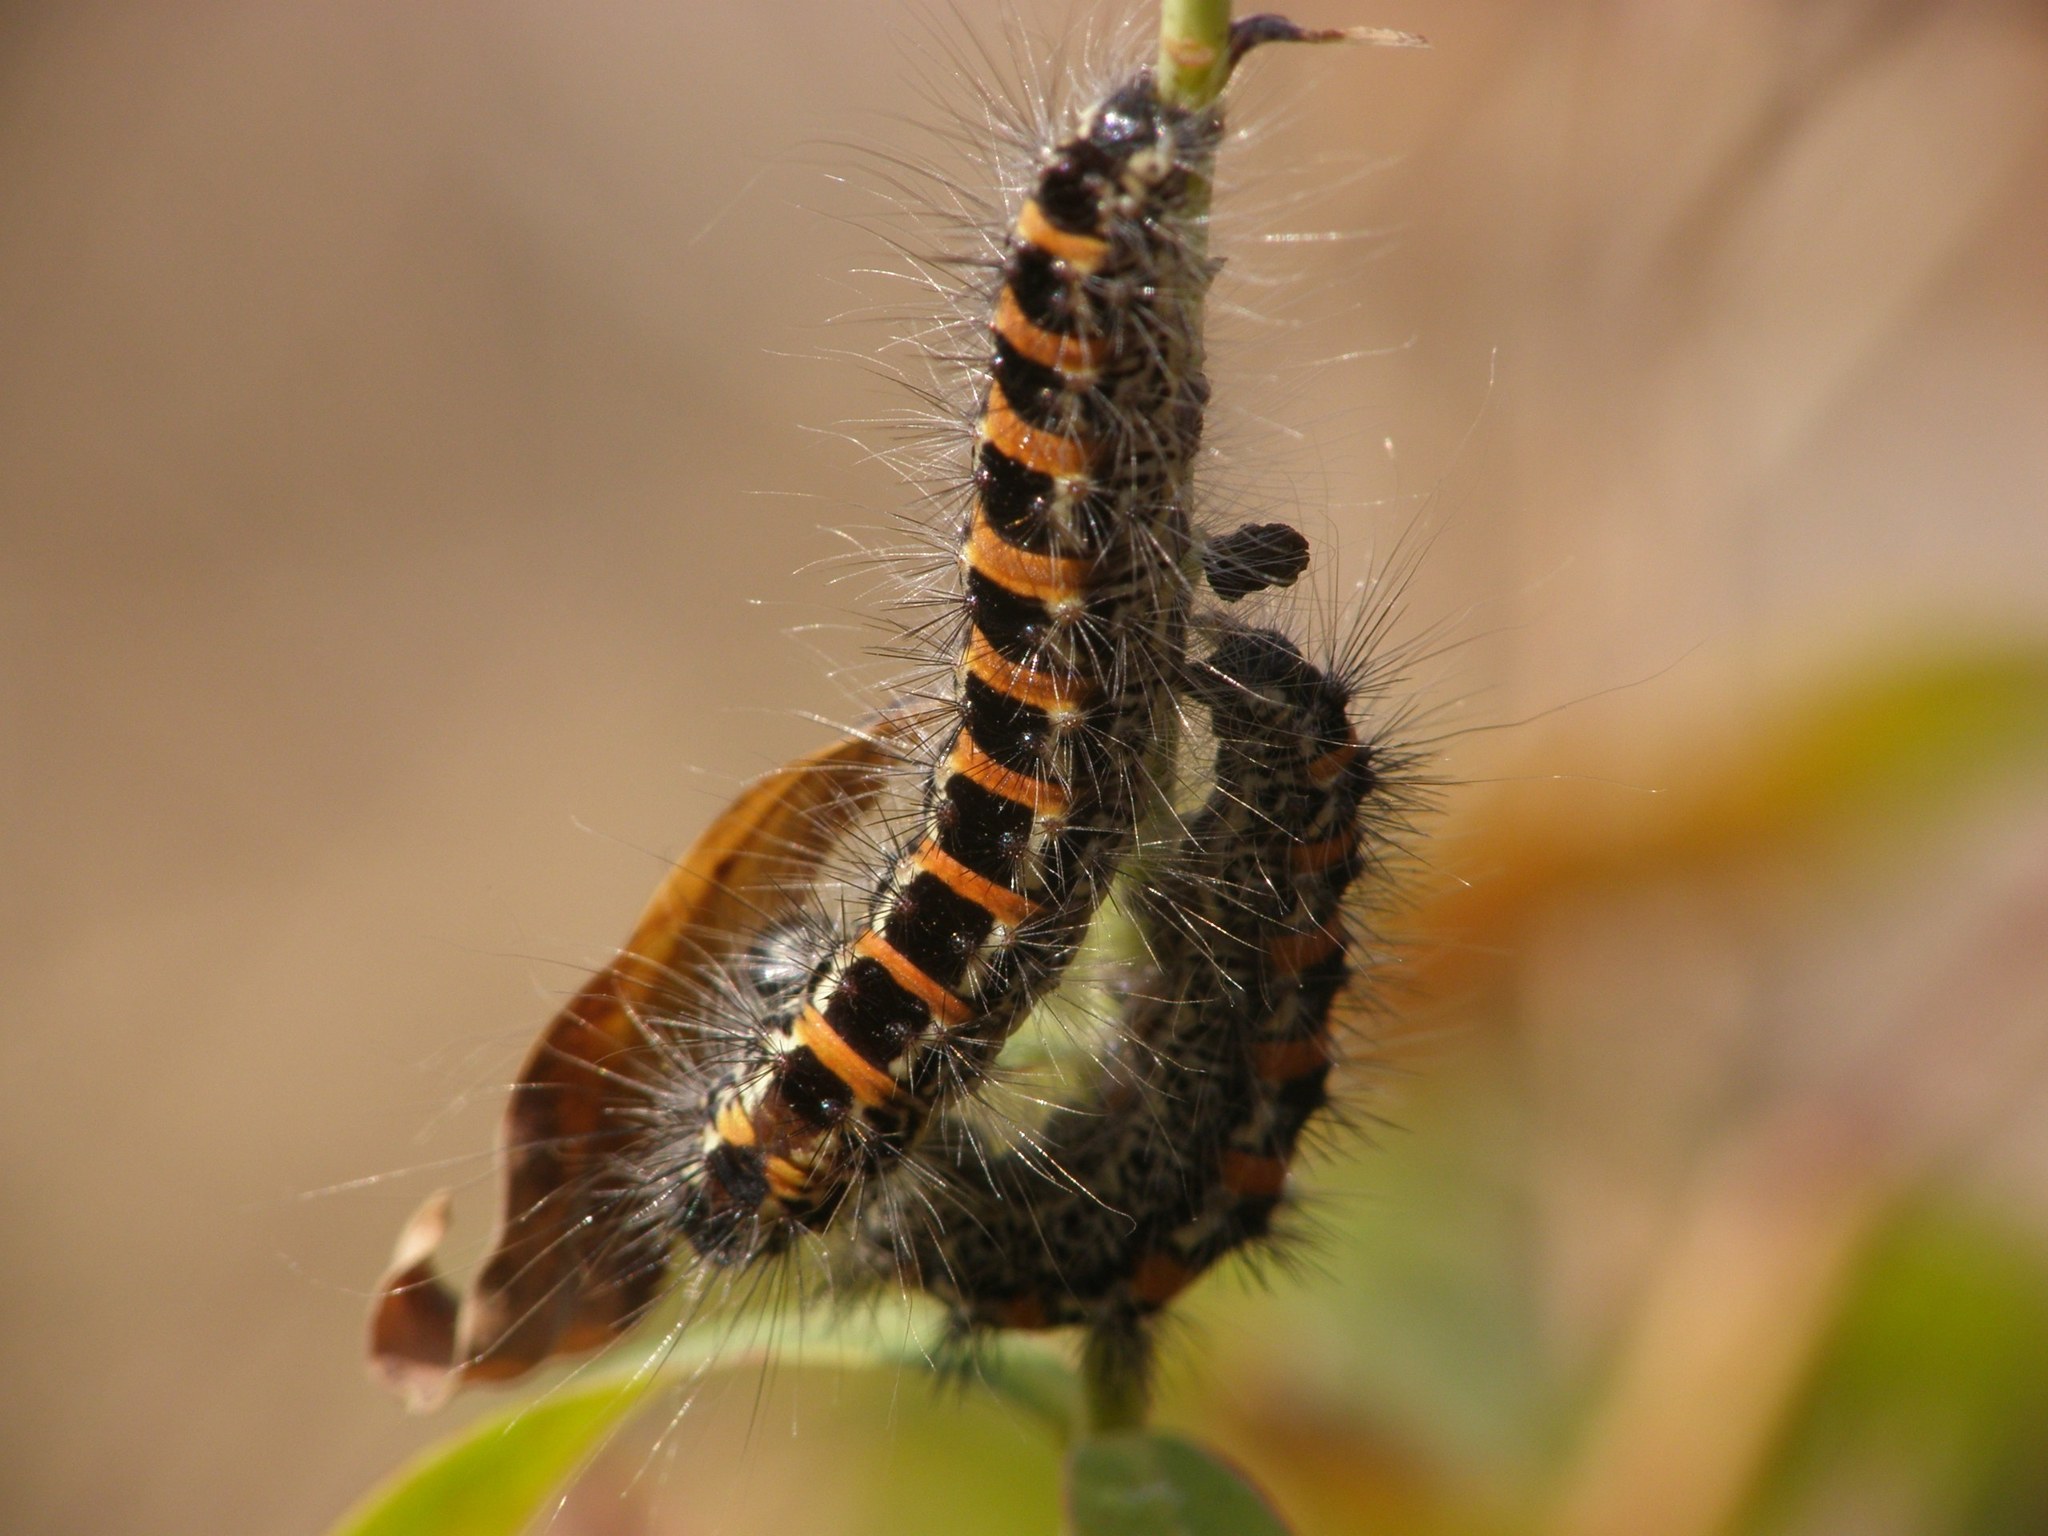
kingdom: Animalia
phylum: Arthropoda
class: Insecta
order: Lepidoptera
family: Noctuidae
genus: Oxicesta
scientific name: Oxicesta geographica
